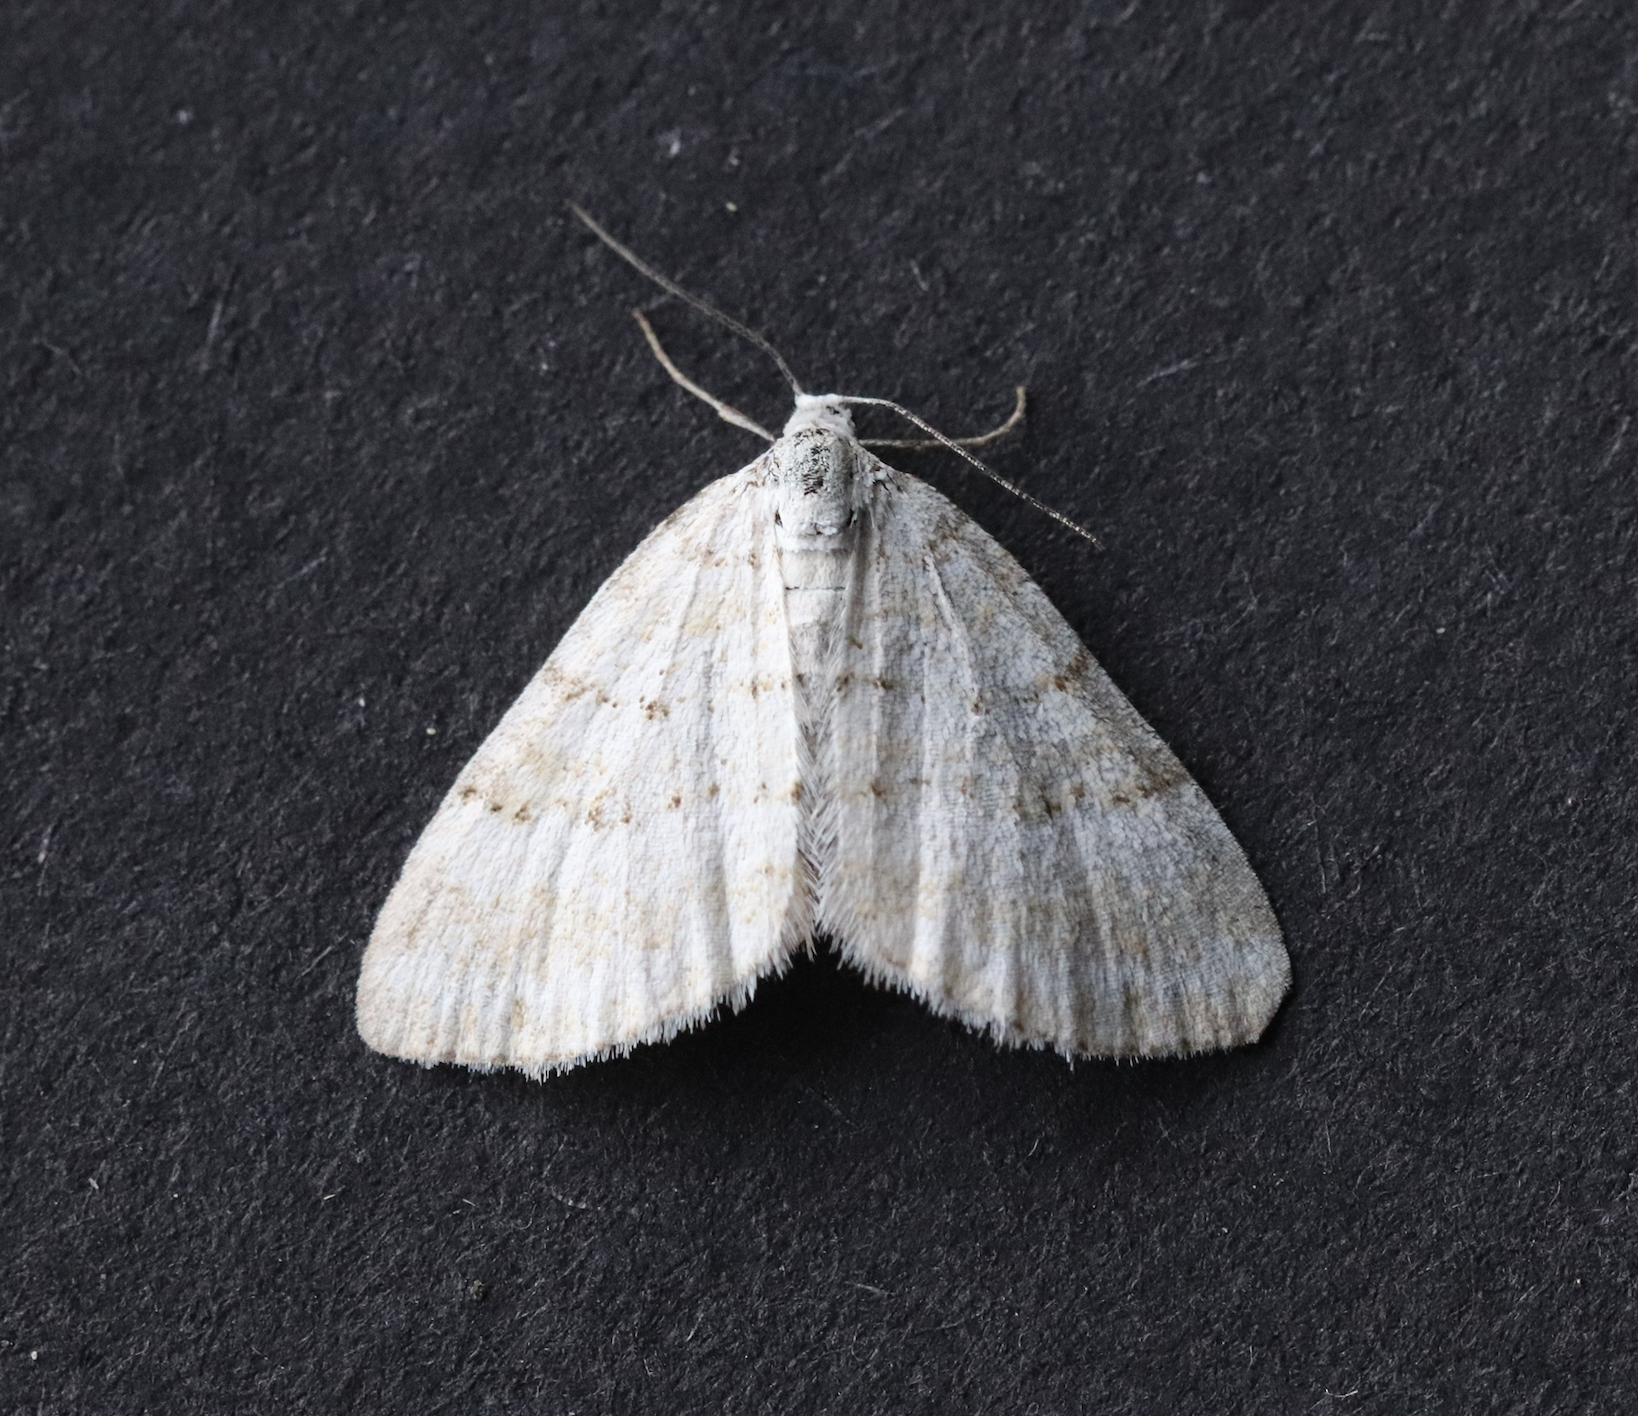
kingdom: Animalia
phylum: Arthropoda
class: Insecta
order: Lepidoptera
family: Geometridae
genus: Perizoma
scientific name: Perizoma albulata
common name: Grass rivulet
